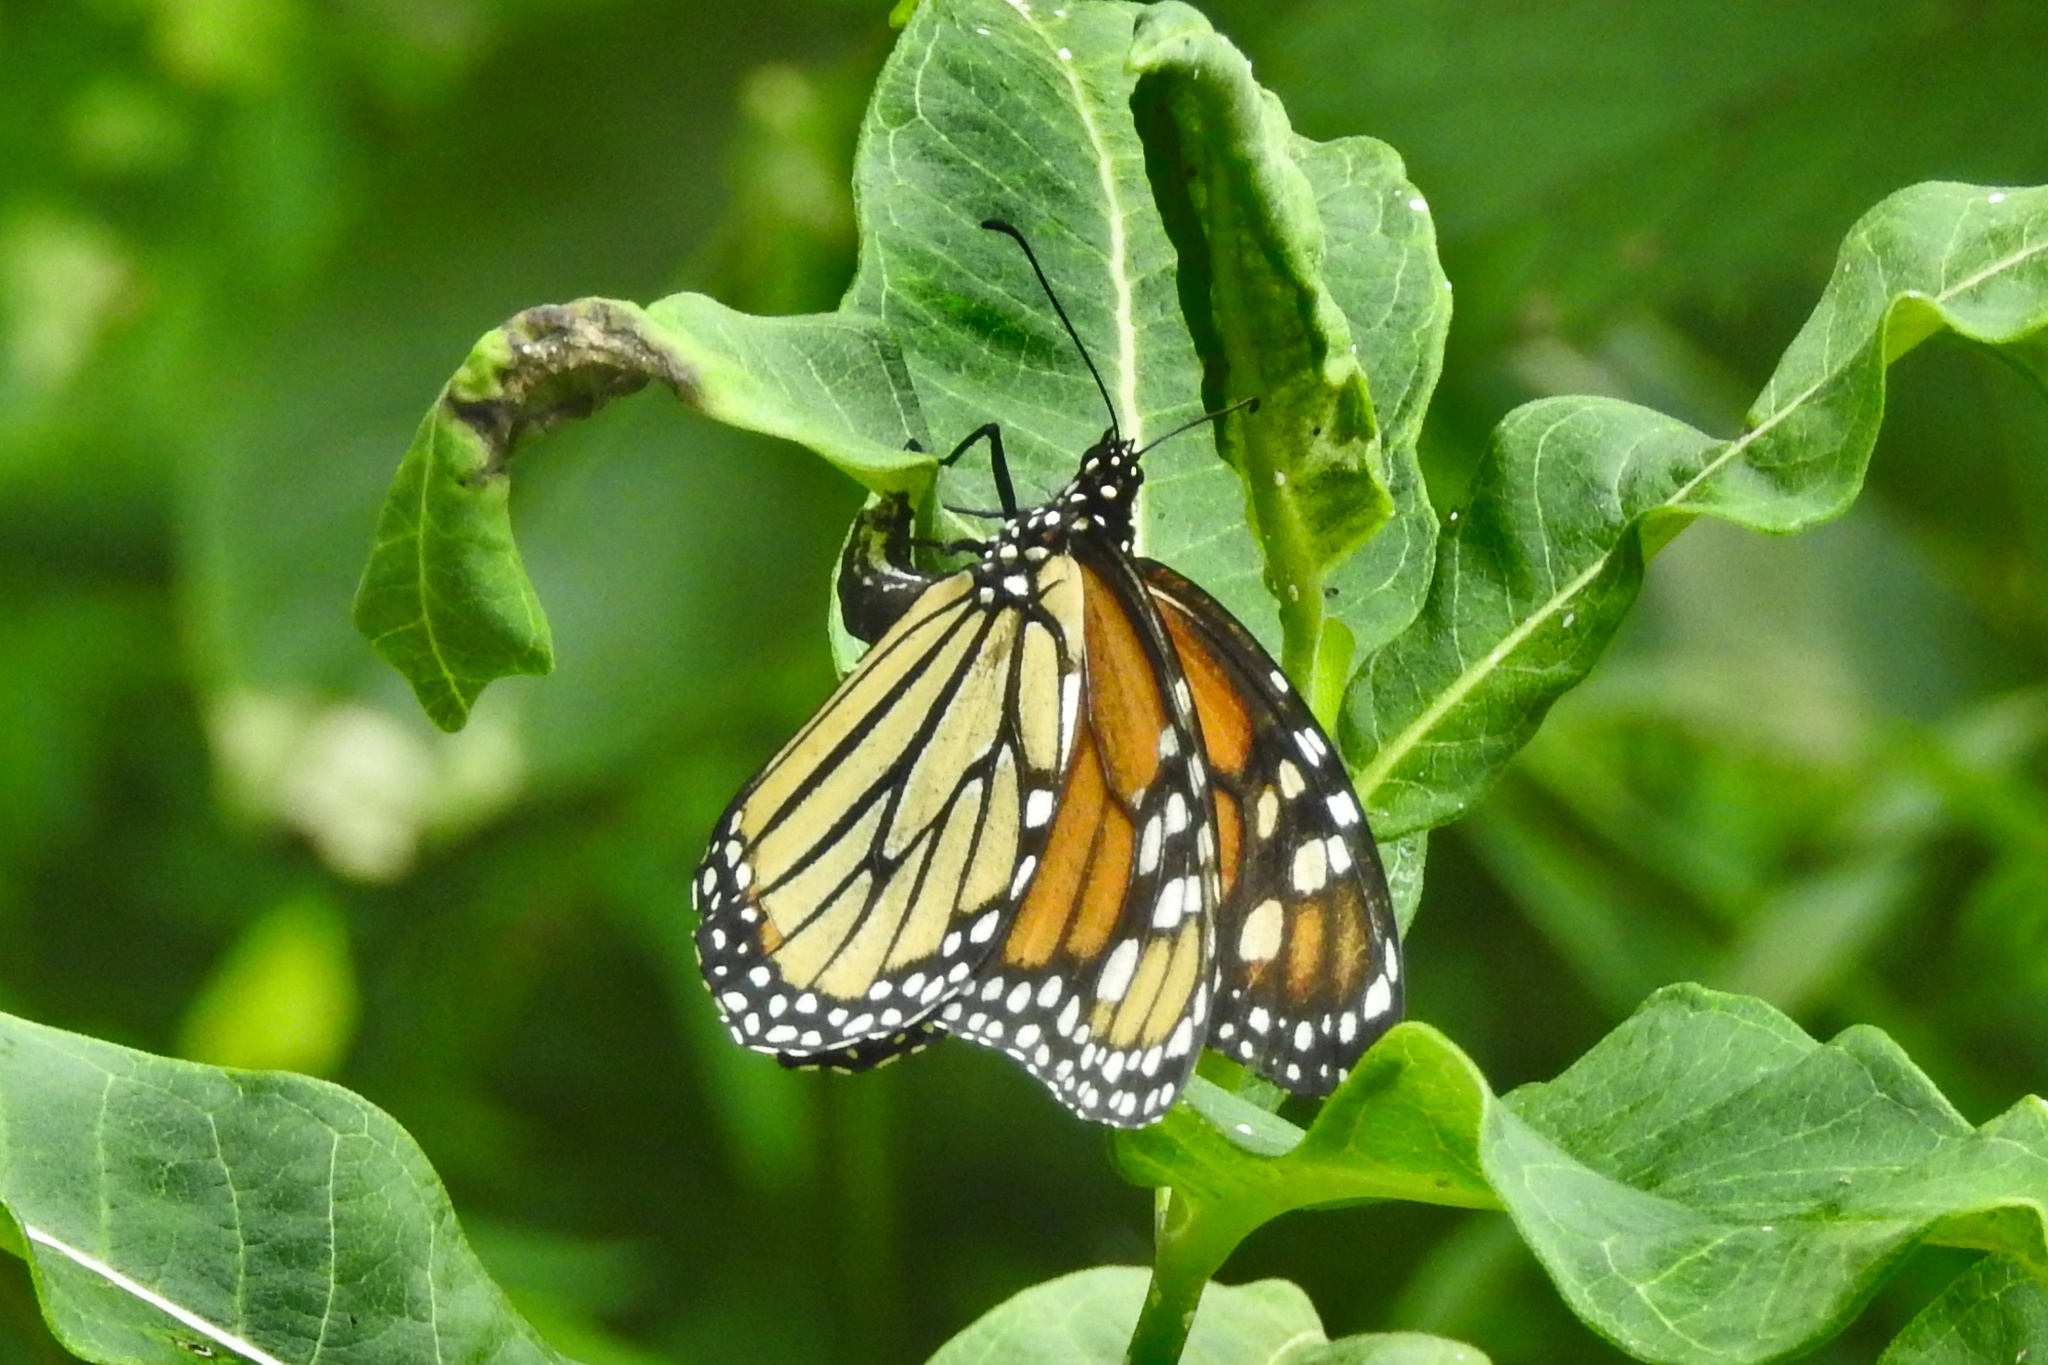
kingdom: Animalia
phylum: Arthropoda
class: Insecta
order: Lepidoptera
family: Nymphalidae
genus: Danaus
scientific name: Danaus plexippus
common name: Monarch
